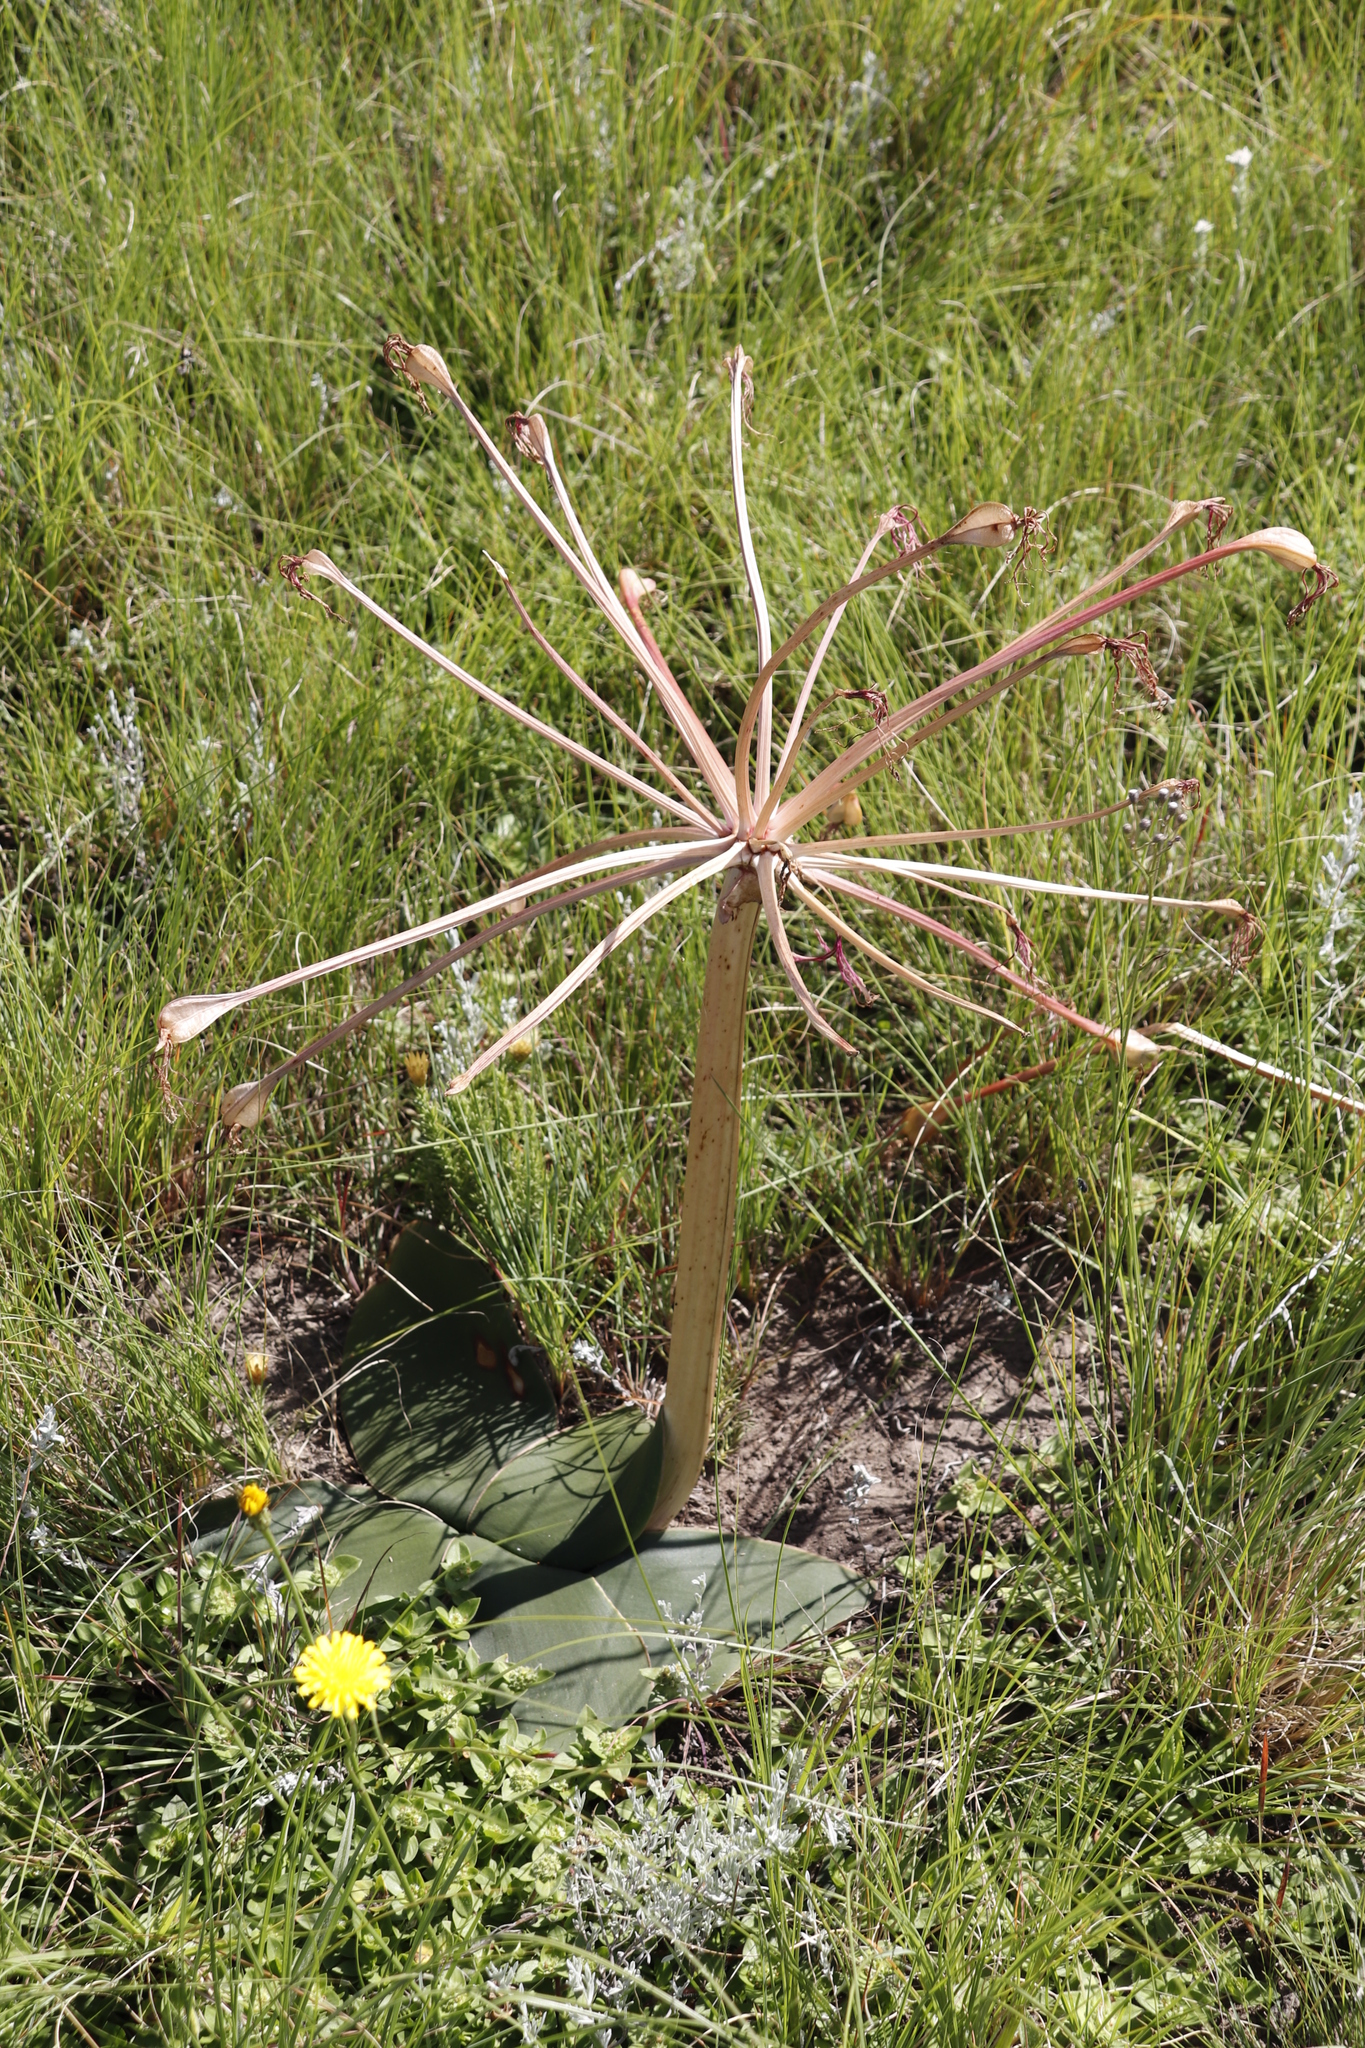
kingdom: Plantae
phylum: Tracheophyta
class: Liliopsida
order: Asparagales
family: Amaryllidaceae
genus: Brunsvigia
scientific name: Brunsvigia radulosa
